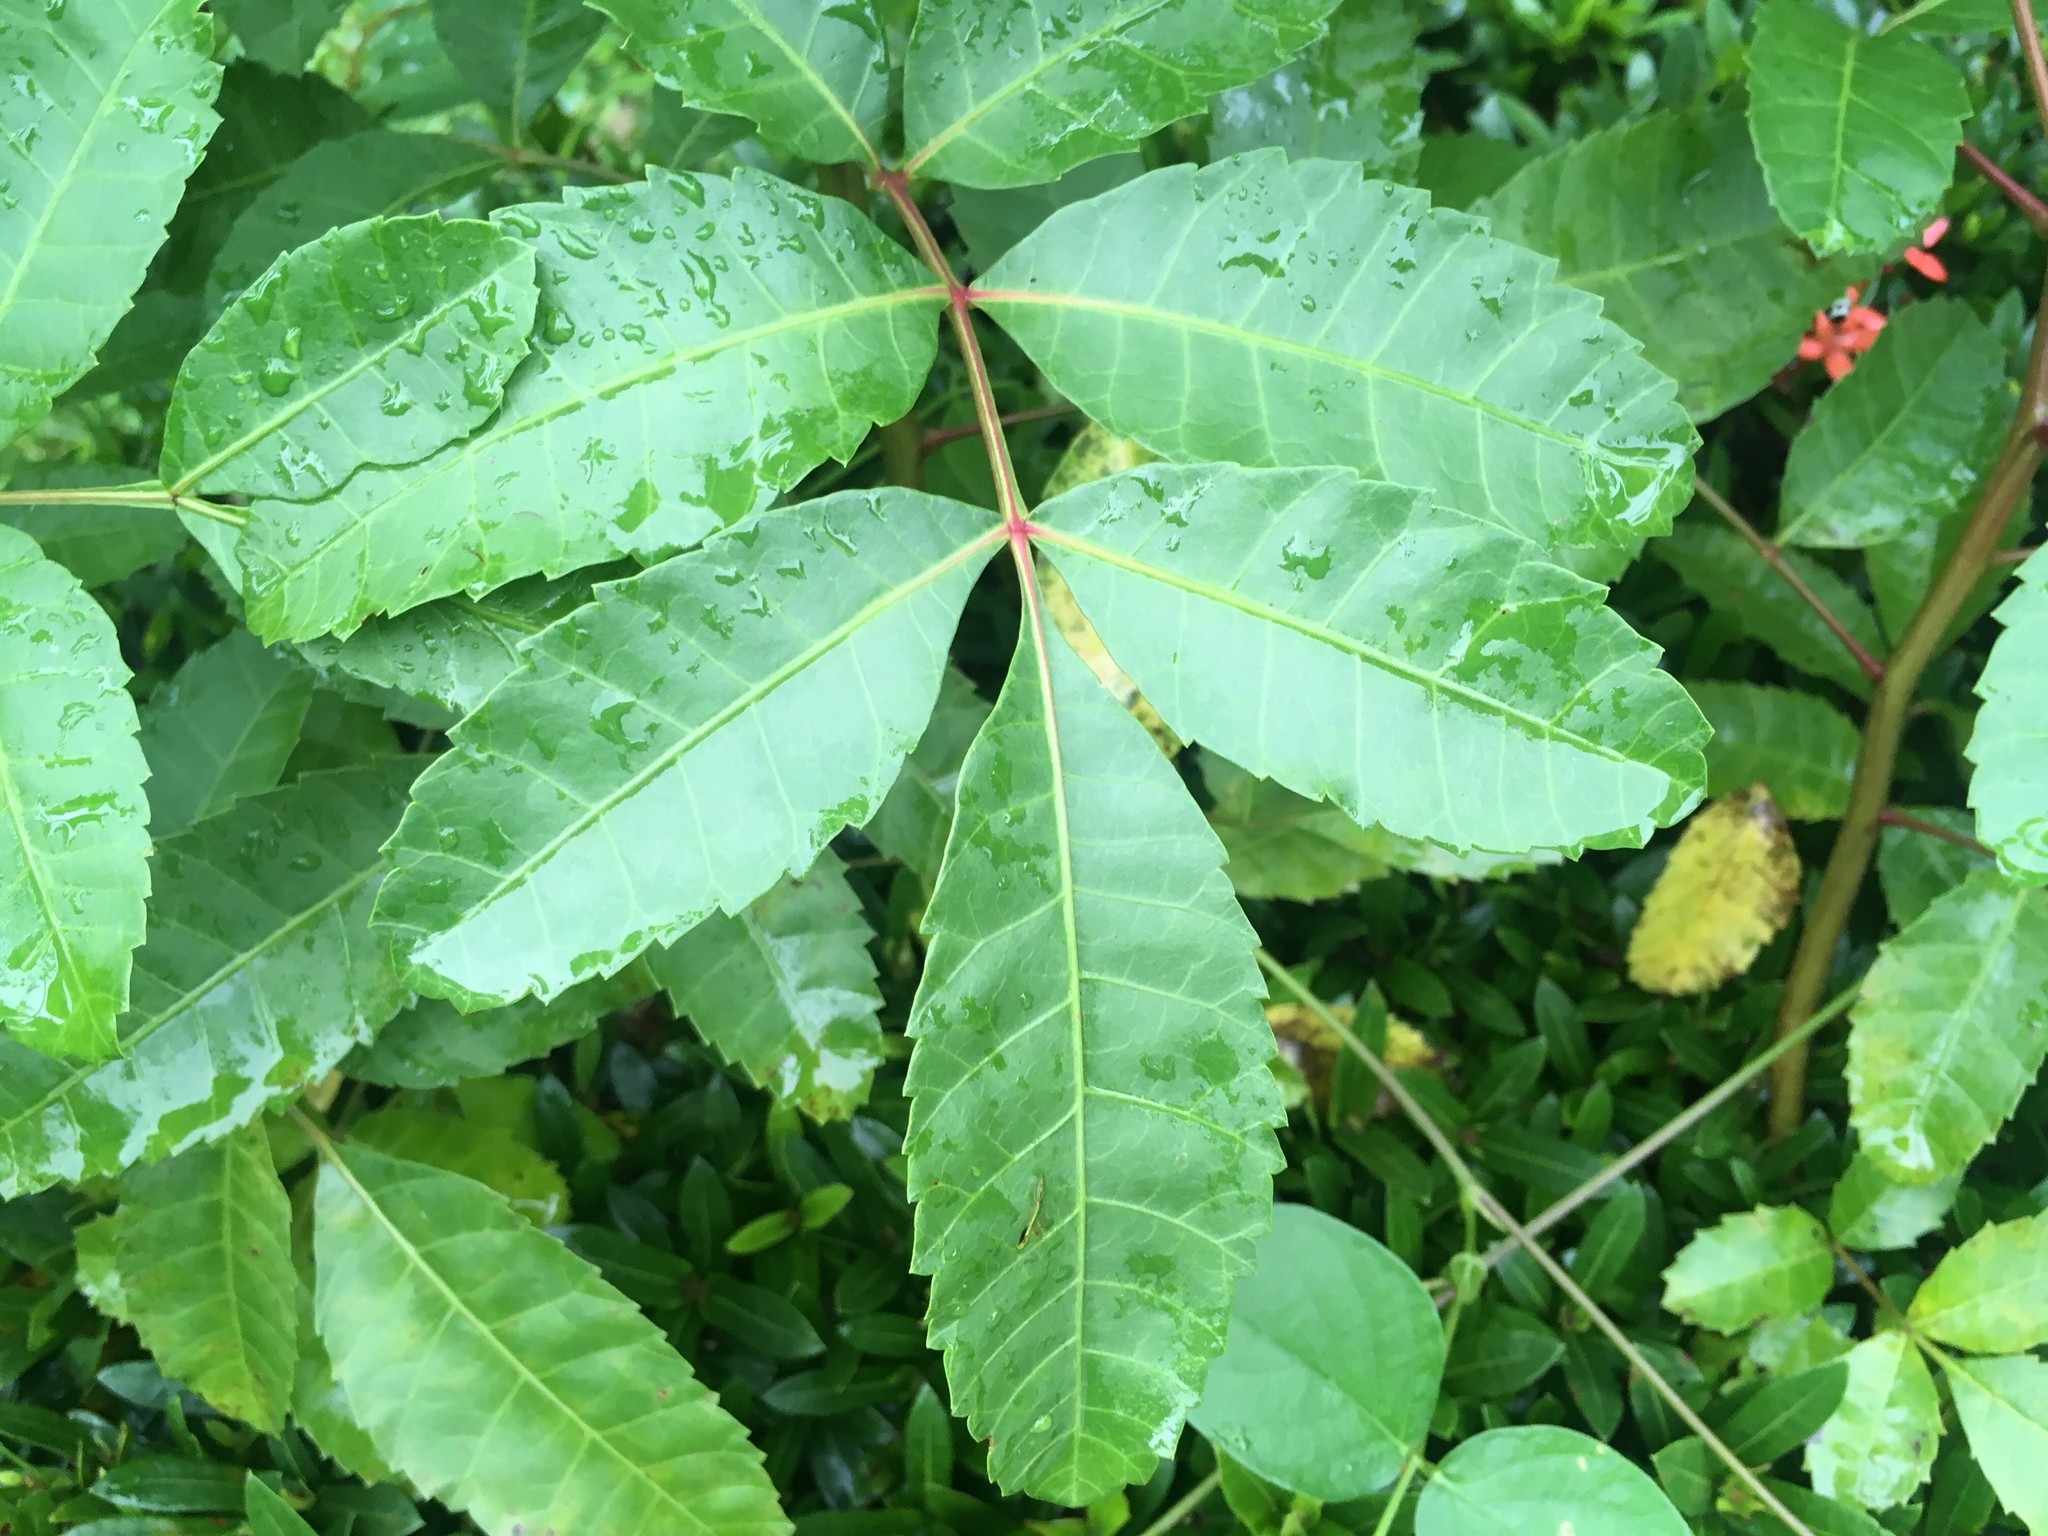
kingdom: Plantae
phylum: Tracheophyta
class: Magnoliopsida
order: Sapindales
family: Anacardiaceae
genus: Schinus
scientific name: Schinus terebinthifolia
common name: Brazilian peppertree
